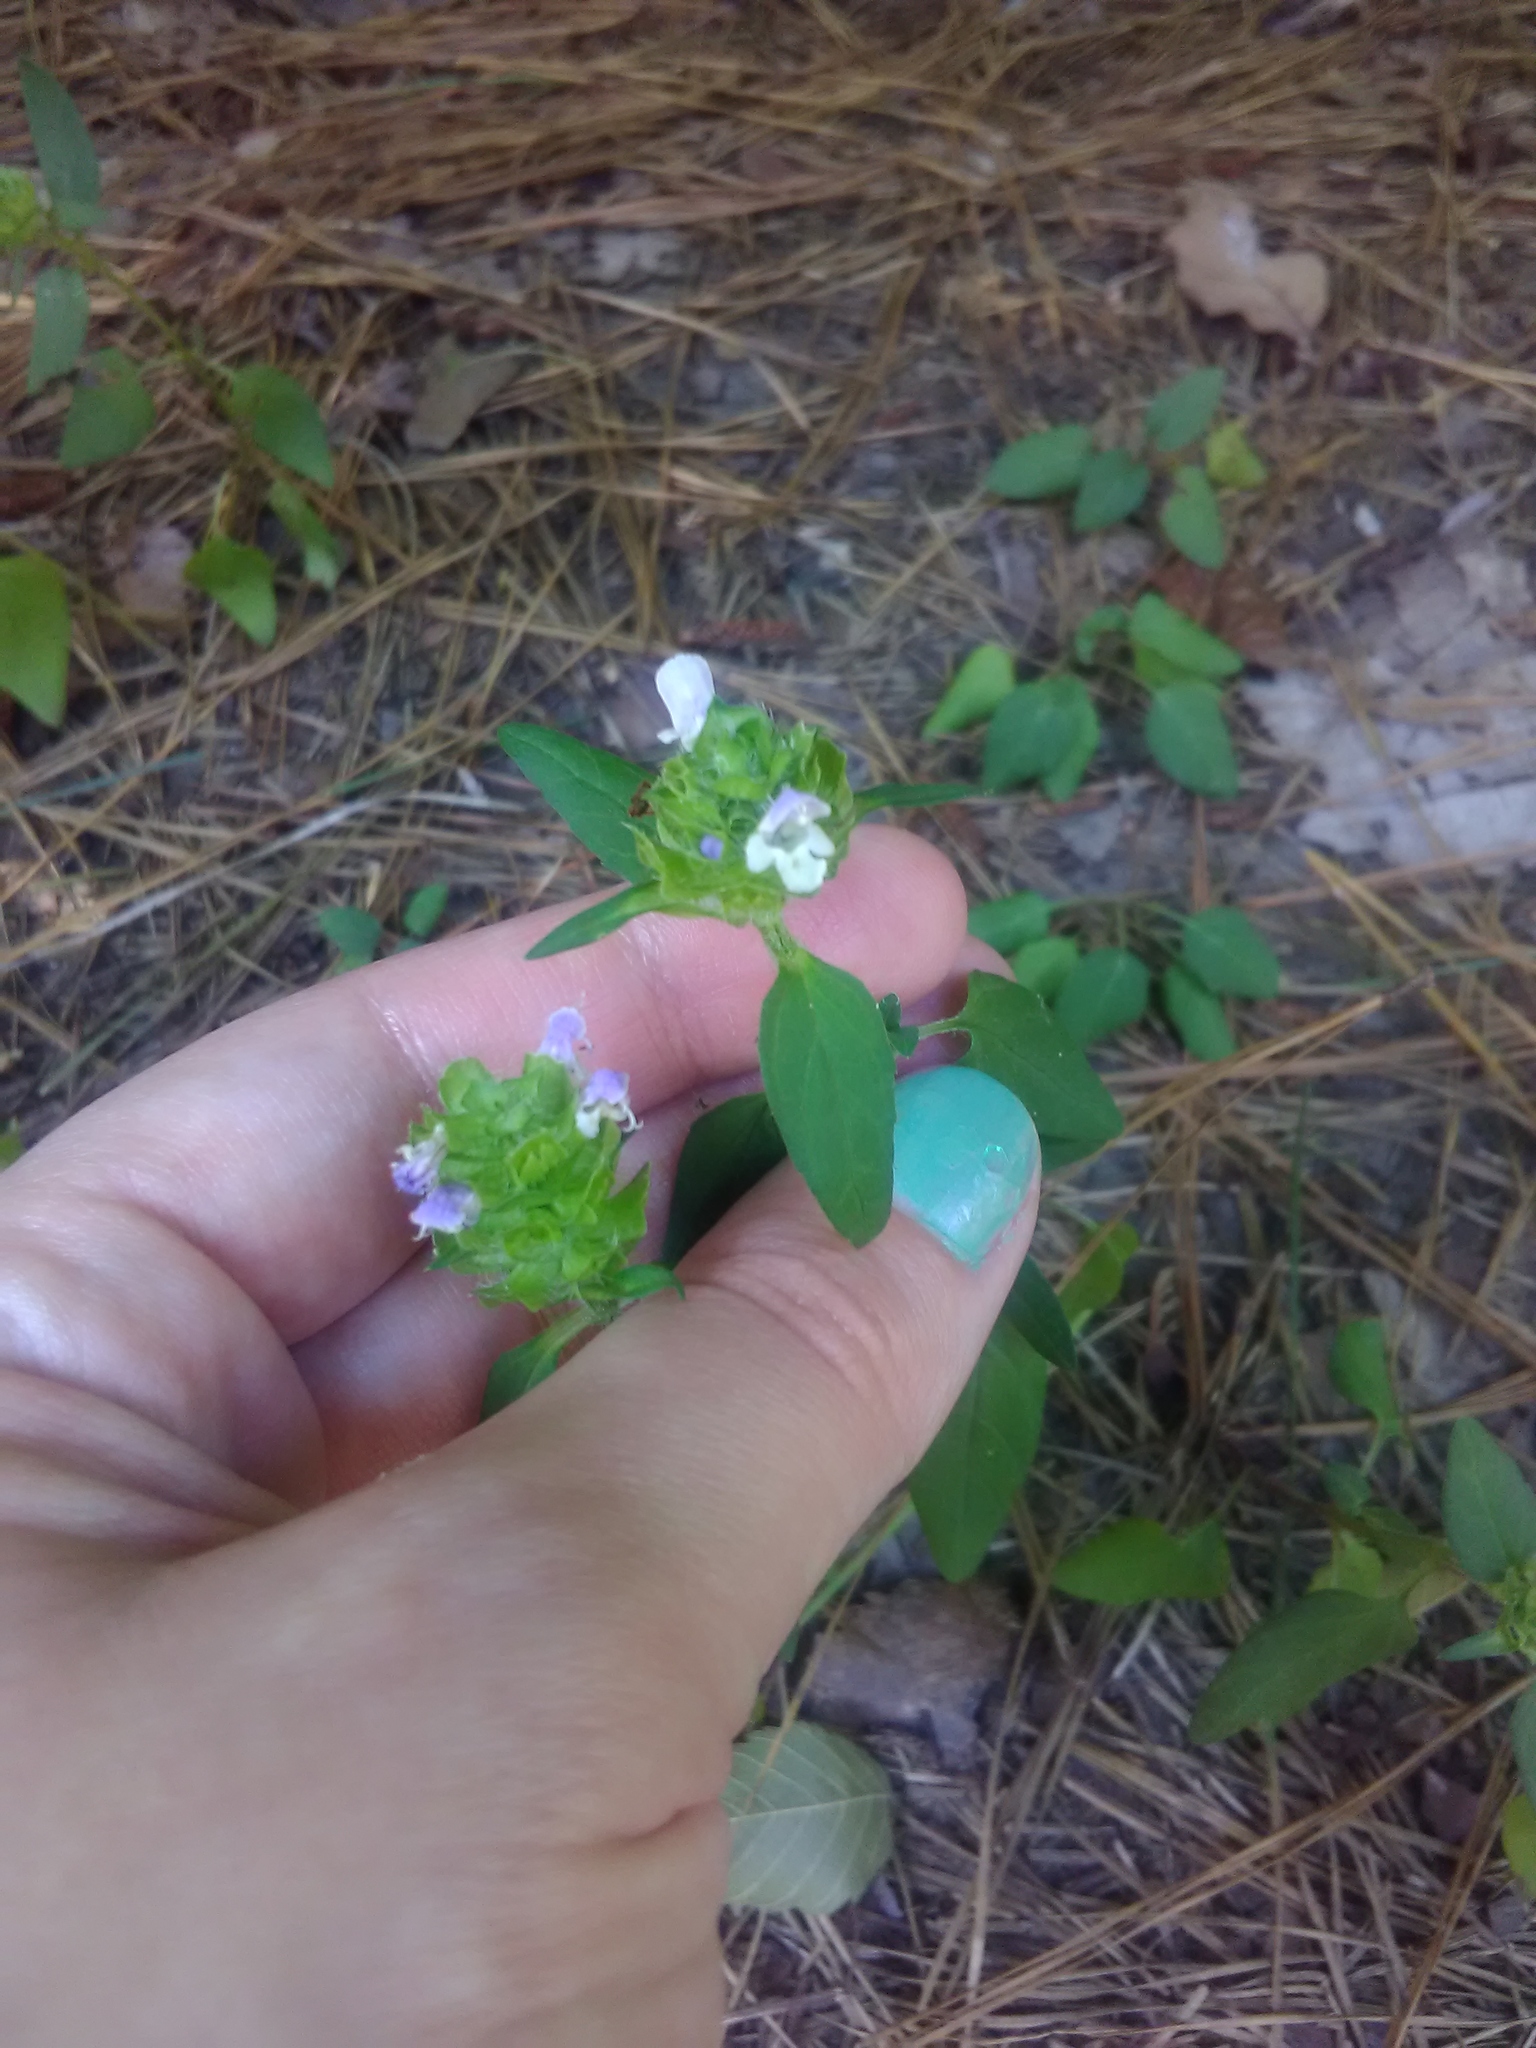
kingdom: Plantae
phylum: Tracheophyta
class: Magnoliopsida
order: Lamiales
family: Lamiaceae
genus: Prunella
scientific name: Prunella vulgaris
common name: Heal-all
